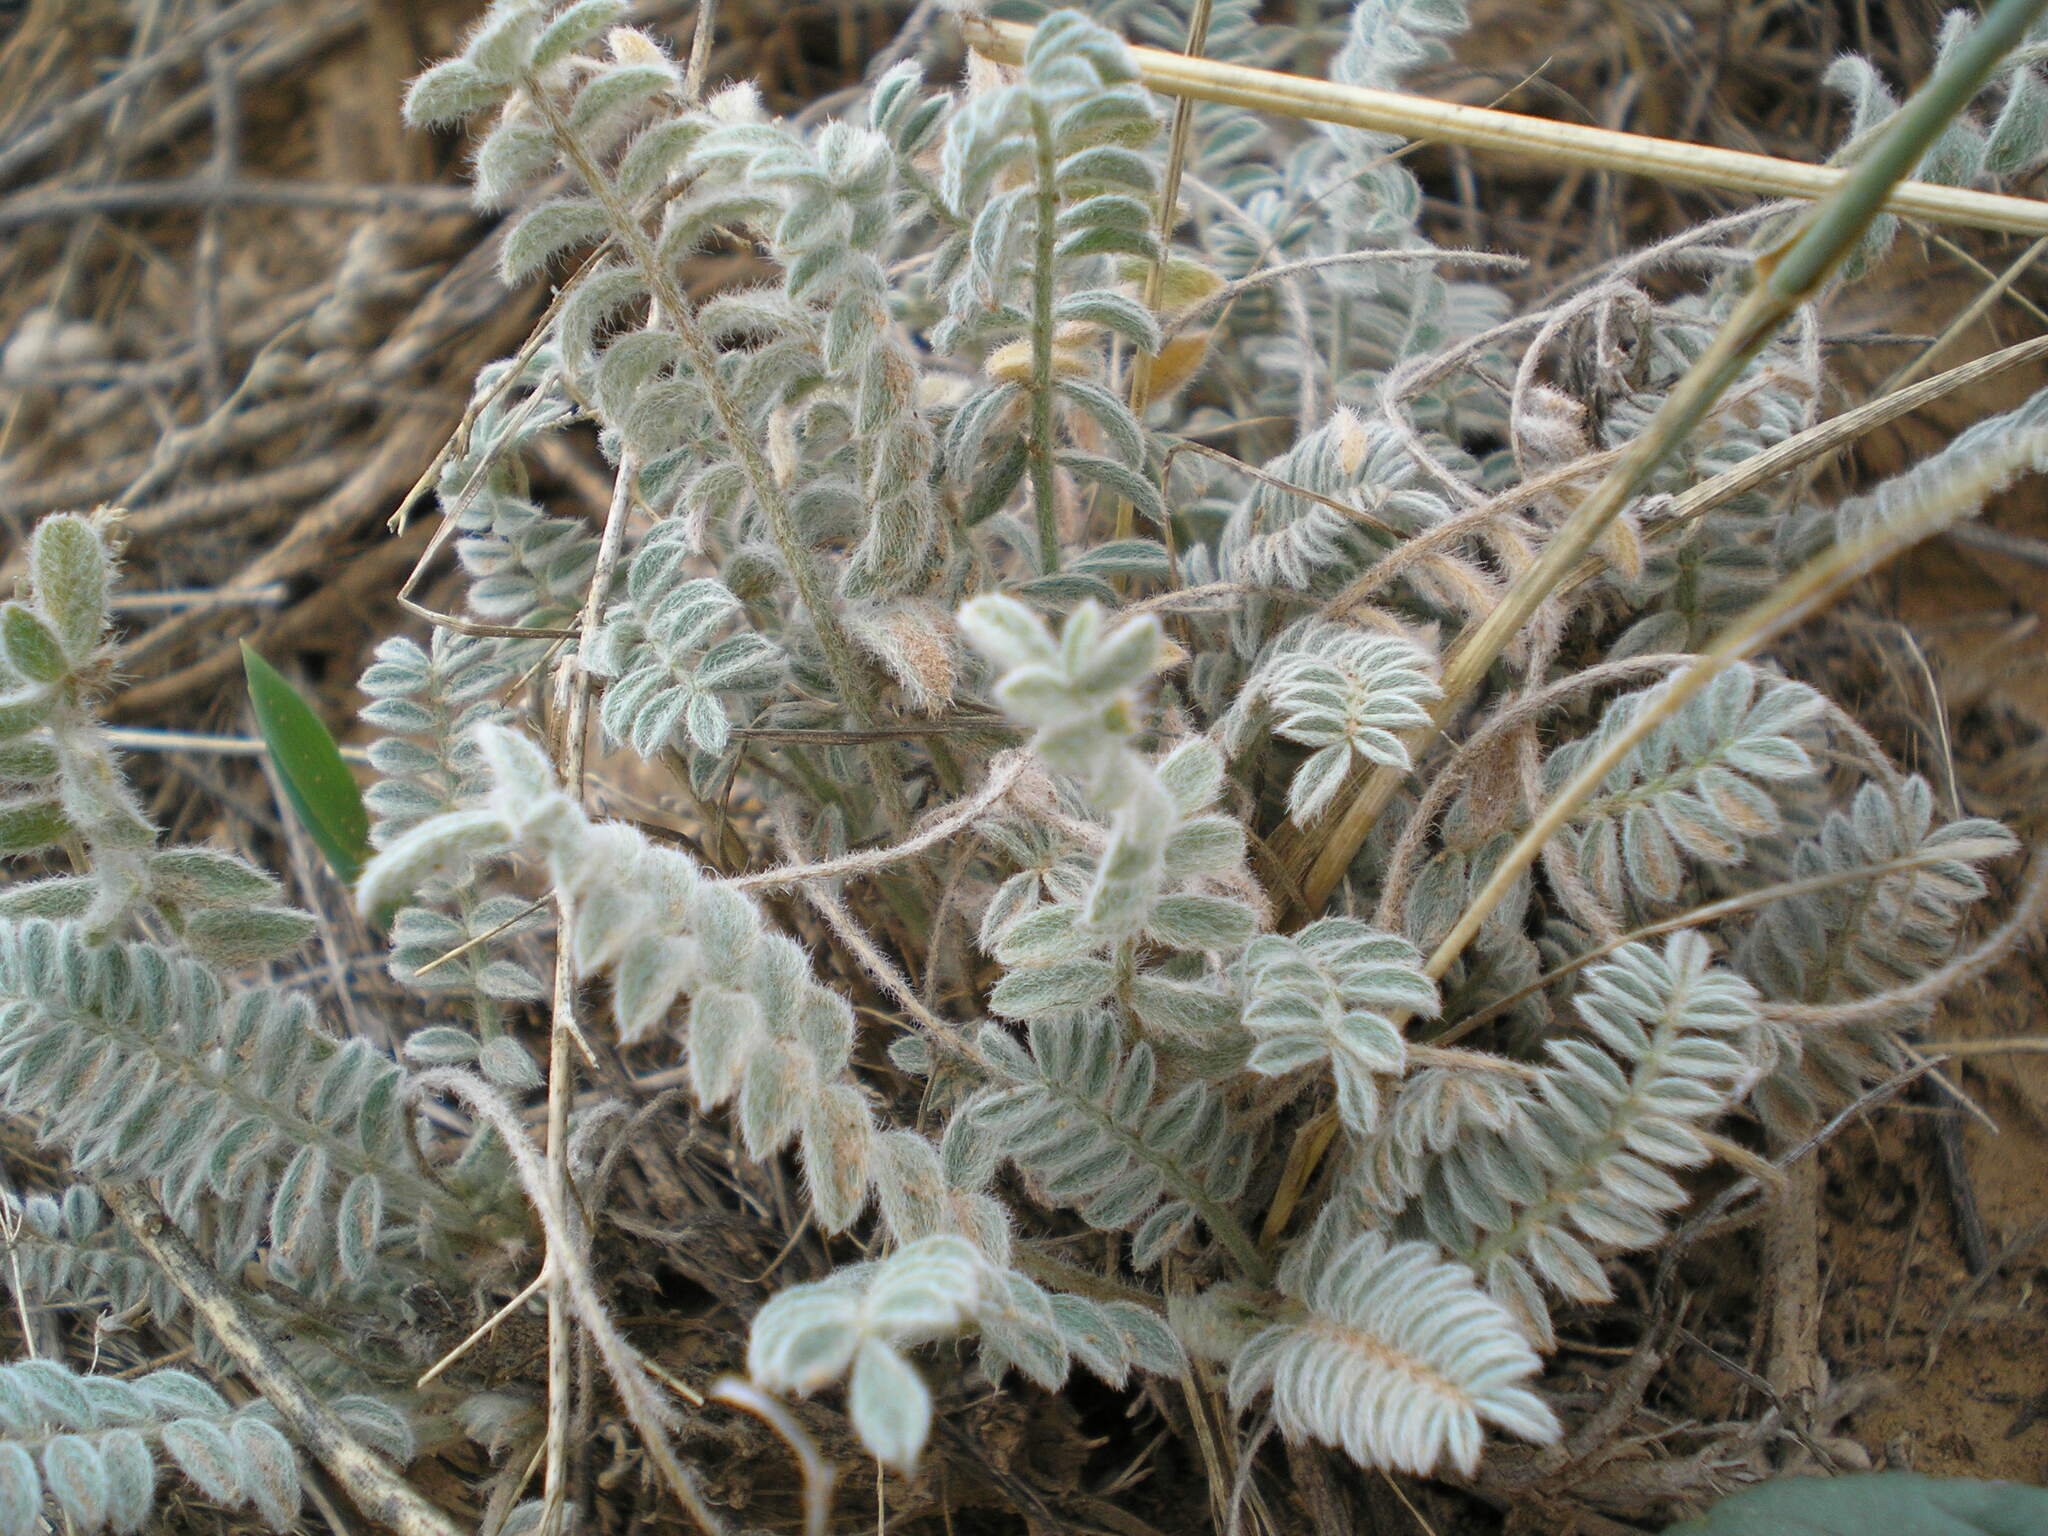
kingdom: Plantae
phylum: Tracheophyta
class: Magnoliopsida
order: Fabales
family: Fabaceae
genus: Astragalus
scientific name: Astragalus testiculatus
